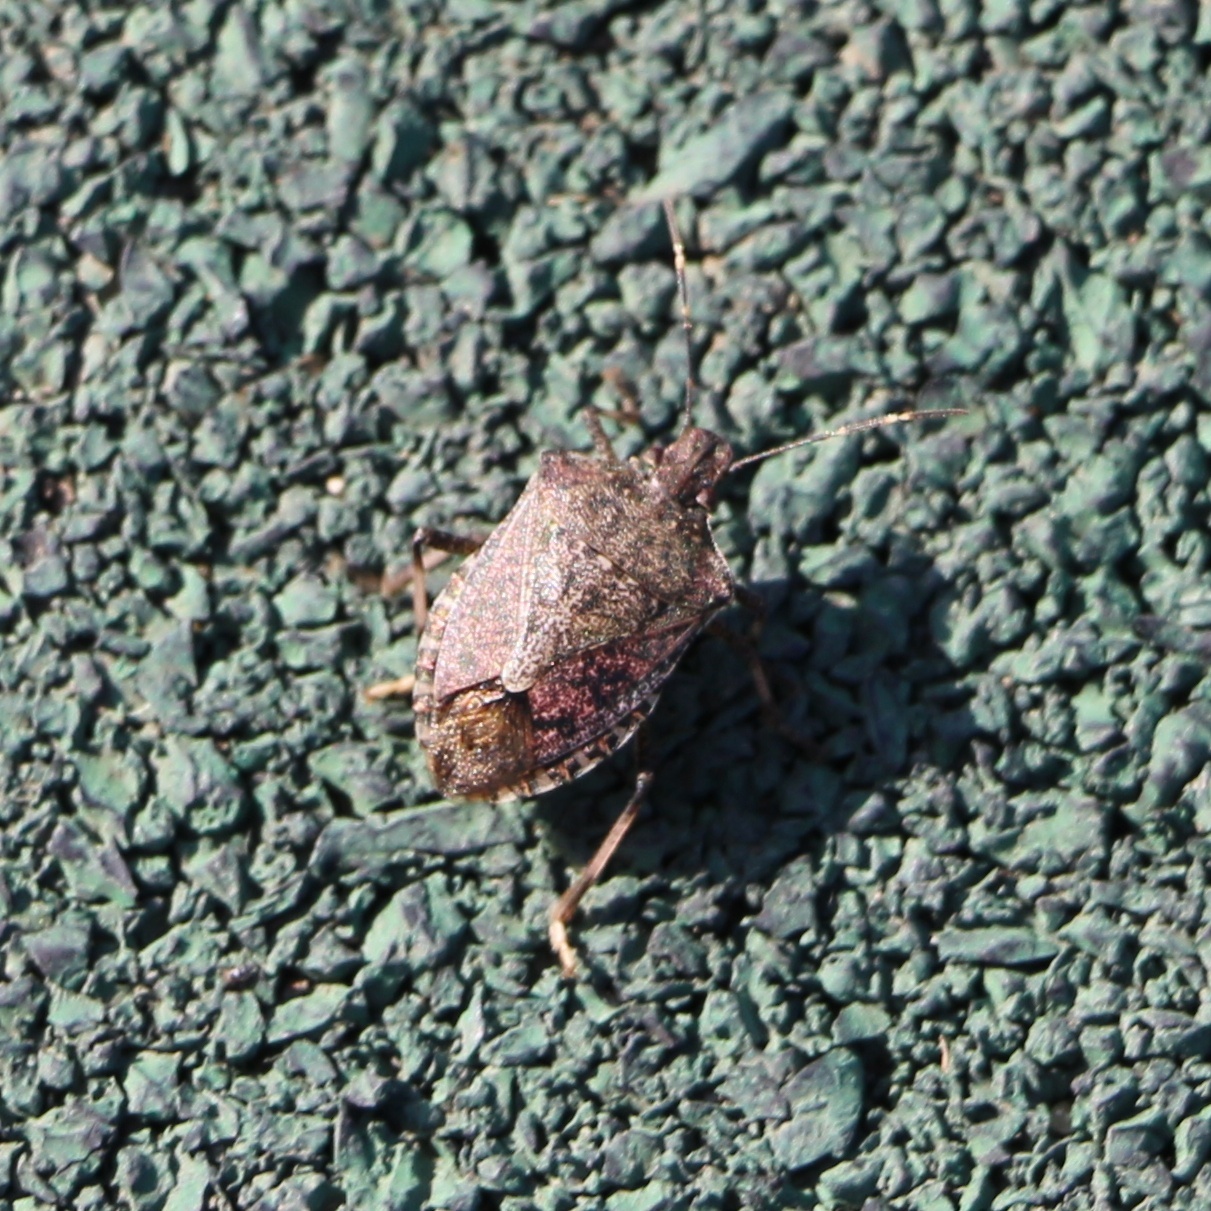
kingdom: Animalia
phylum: Arthropoda
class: Insecta
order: Hemiptera
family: Pentatomidae
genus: Halyomorpha
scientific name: Halyomorpha halys
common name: Brown marmorated stink bug
